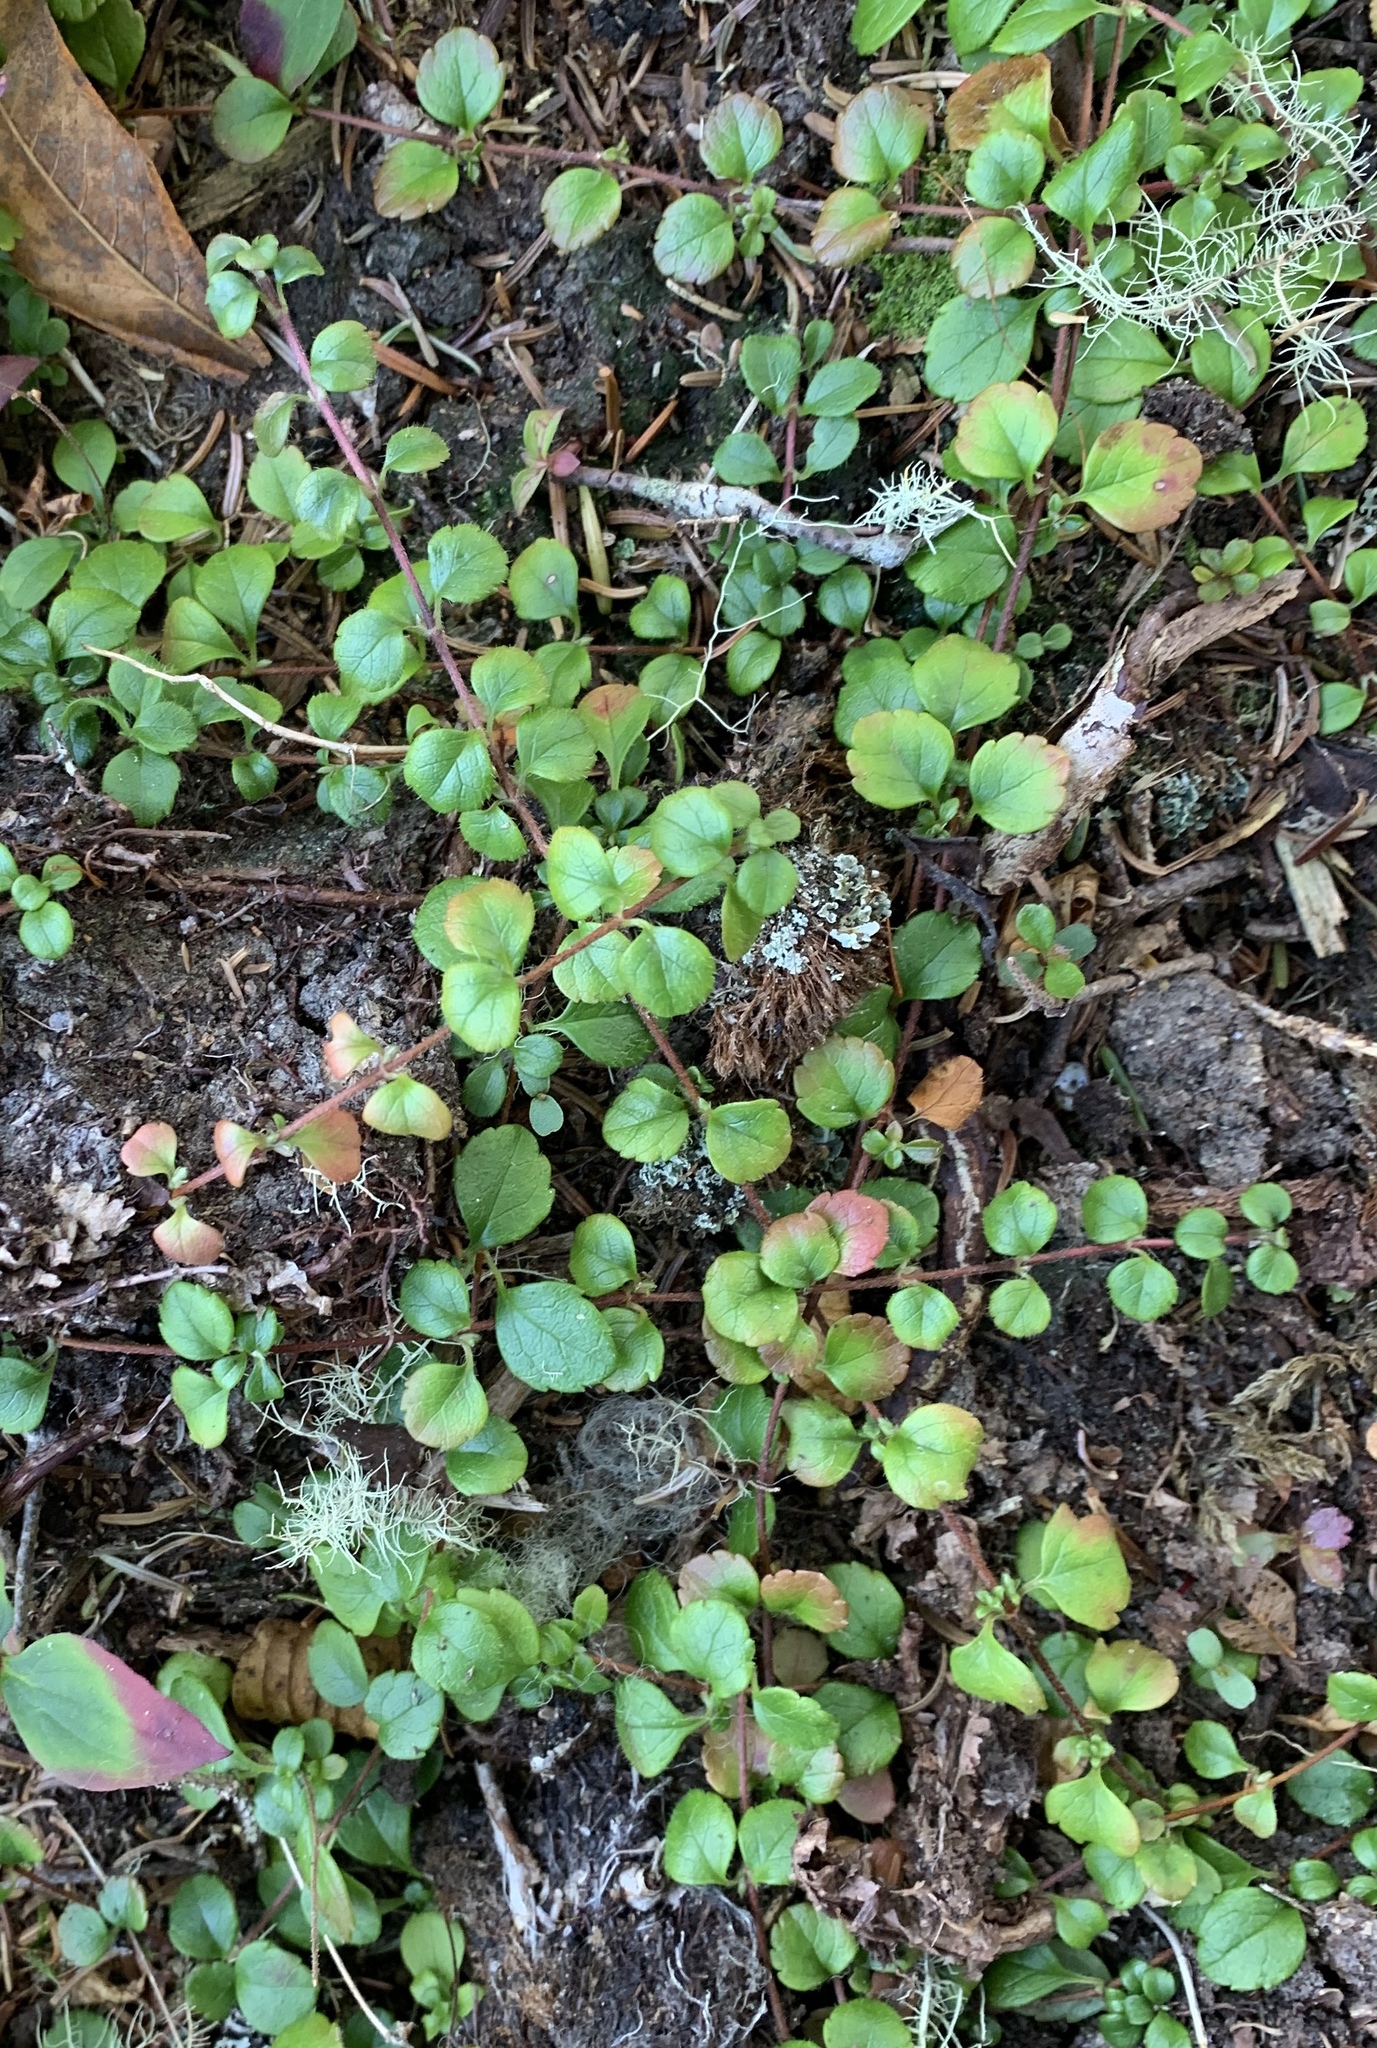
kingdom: Plantae
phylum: Tracheophyta
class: Magnoliopsida
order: Dipsacales
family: Caprifoliaceae
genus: Linnaea
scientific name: Linnaea borealis
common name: Twinflower
